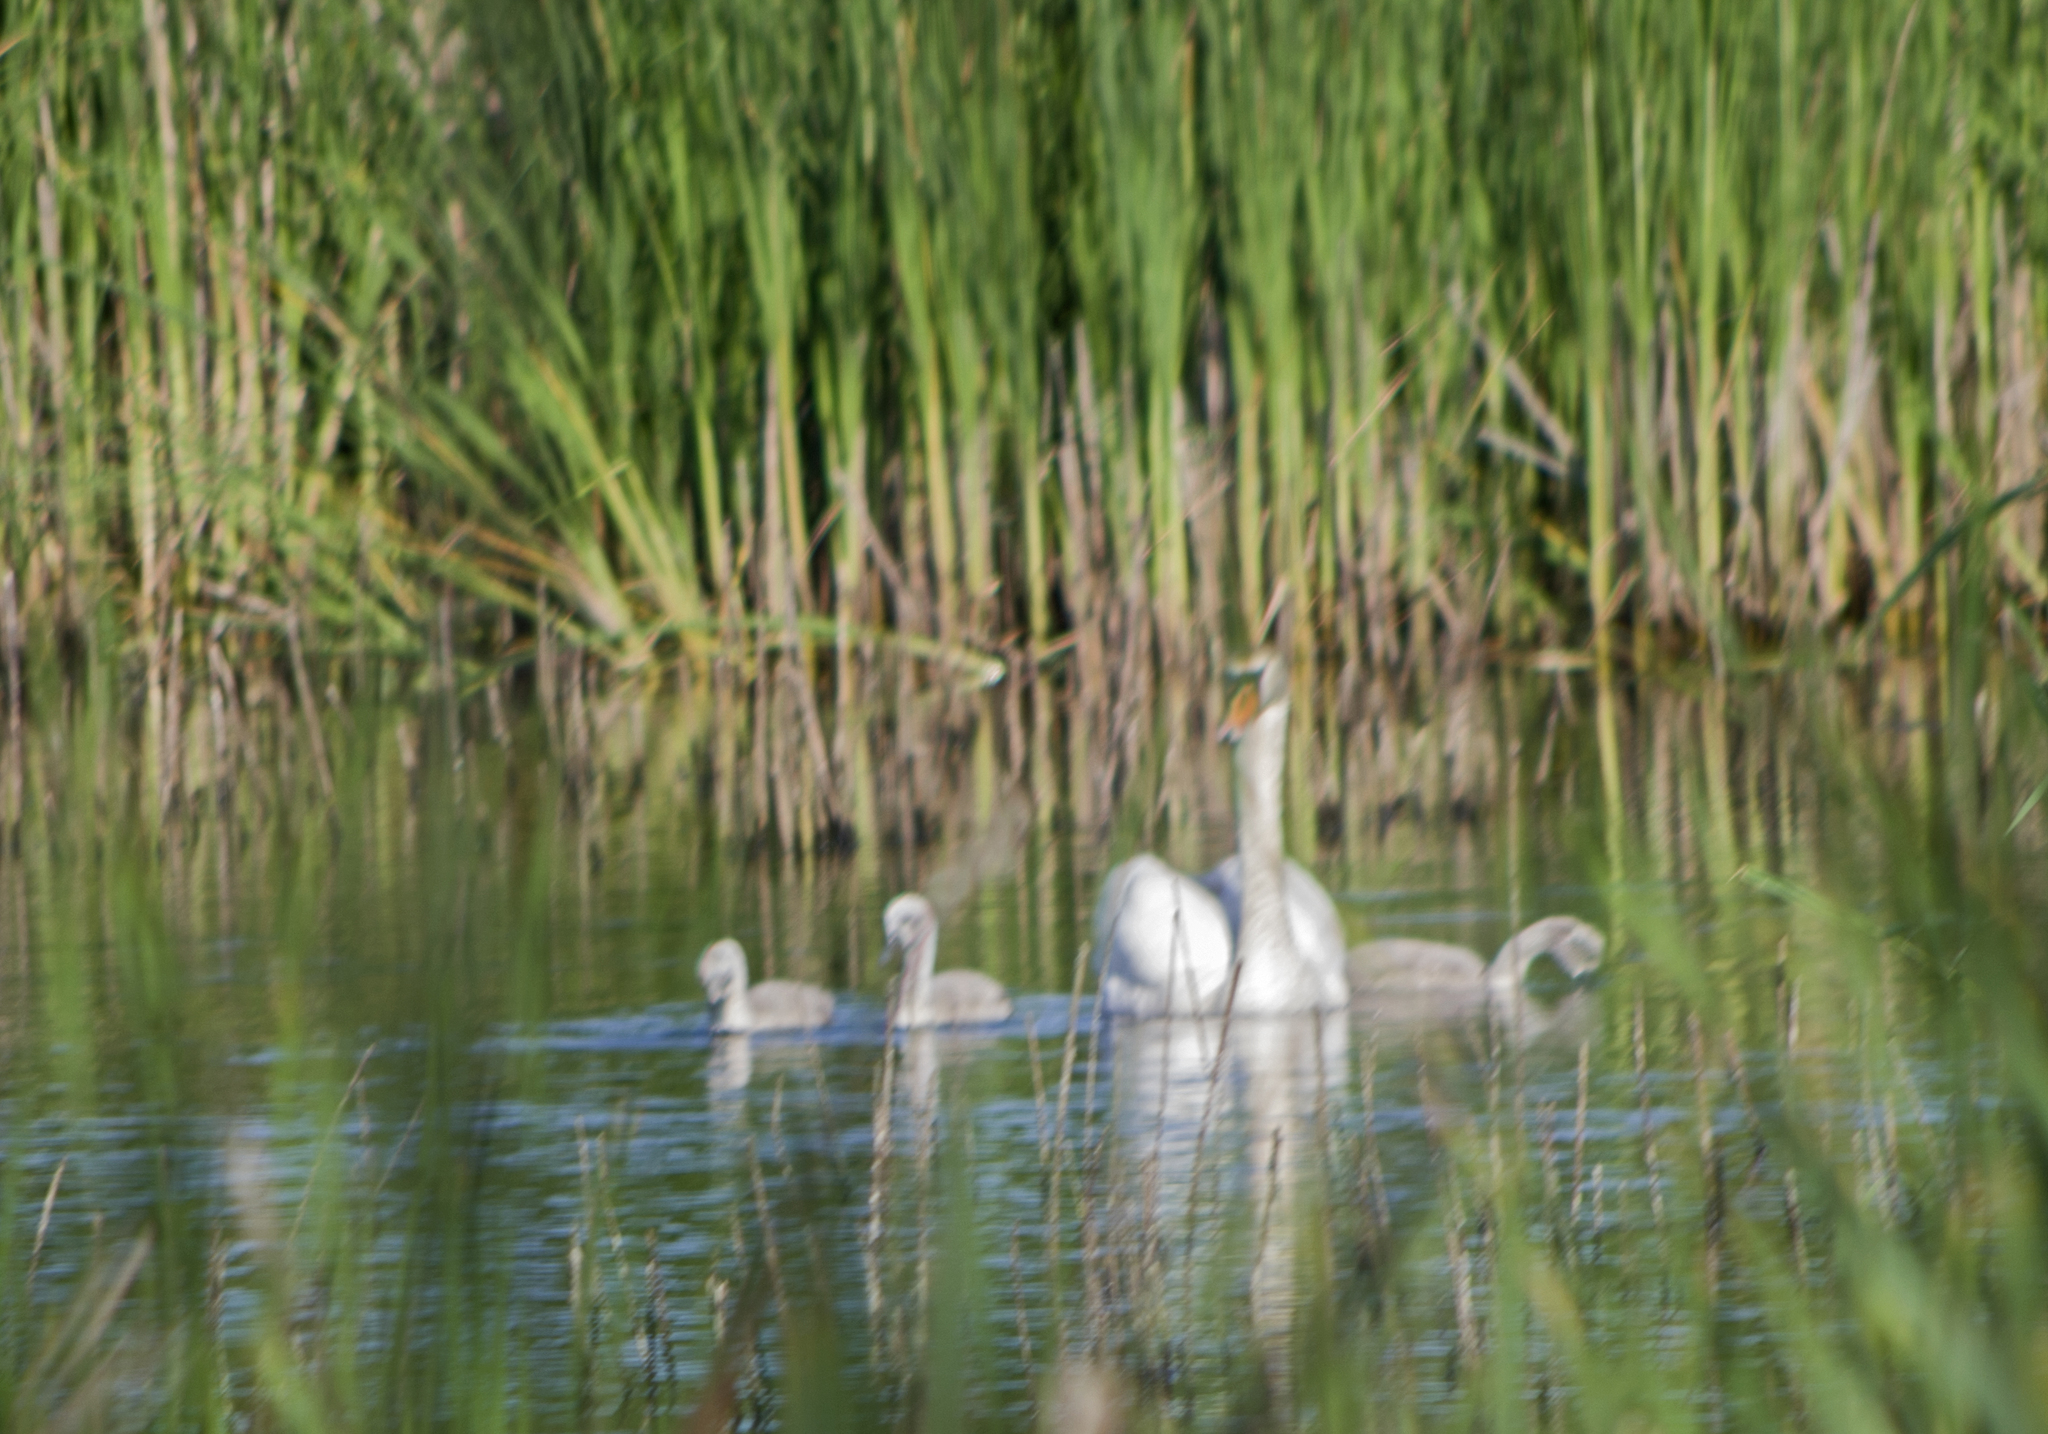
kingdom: Animalia
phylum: Chordata
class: Aves
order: Anseriformes
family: Anatidae
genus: Cygnus
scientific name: Cygnus olor
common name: Mute swan
